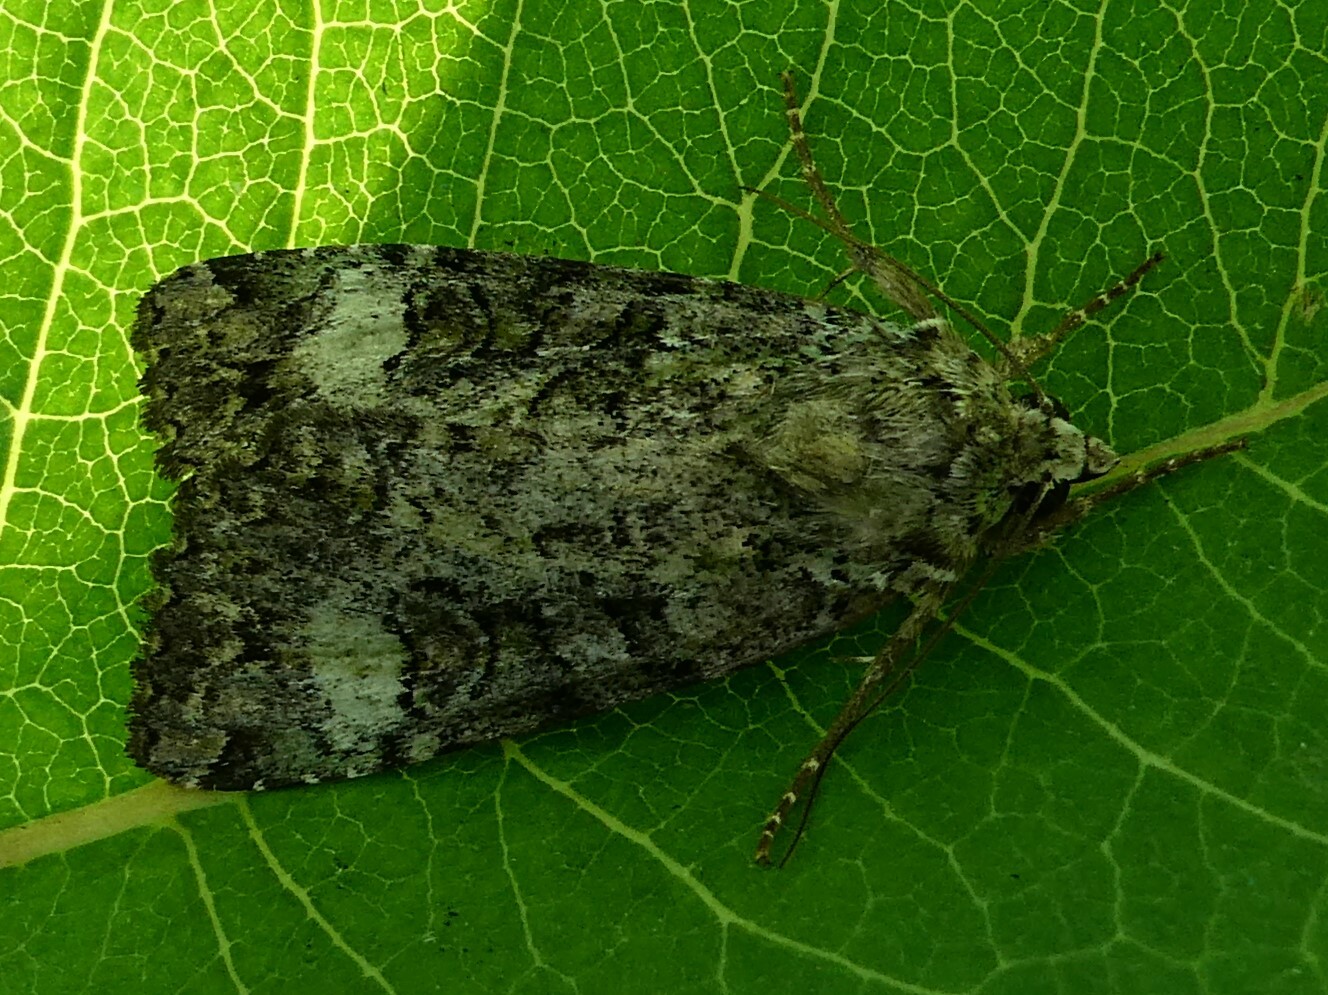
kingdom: Animalia
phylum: Arthropoda
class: Insecta
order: Lepidoptera
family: Noctuidae
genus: Anaplectoides
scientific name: Anaplectoides prasina
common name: Green arches
